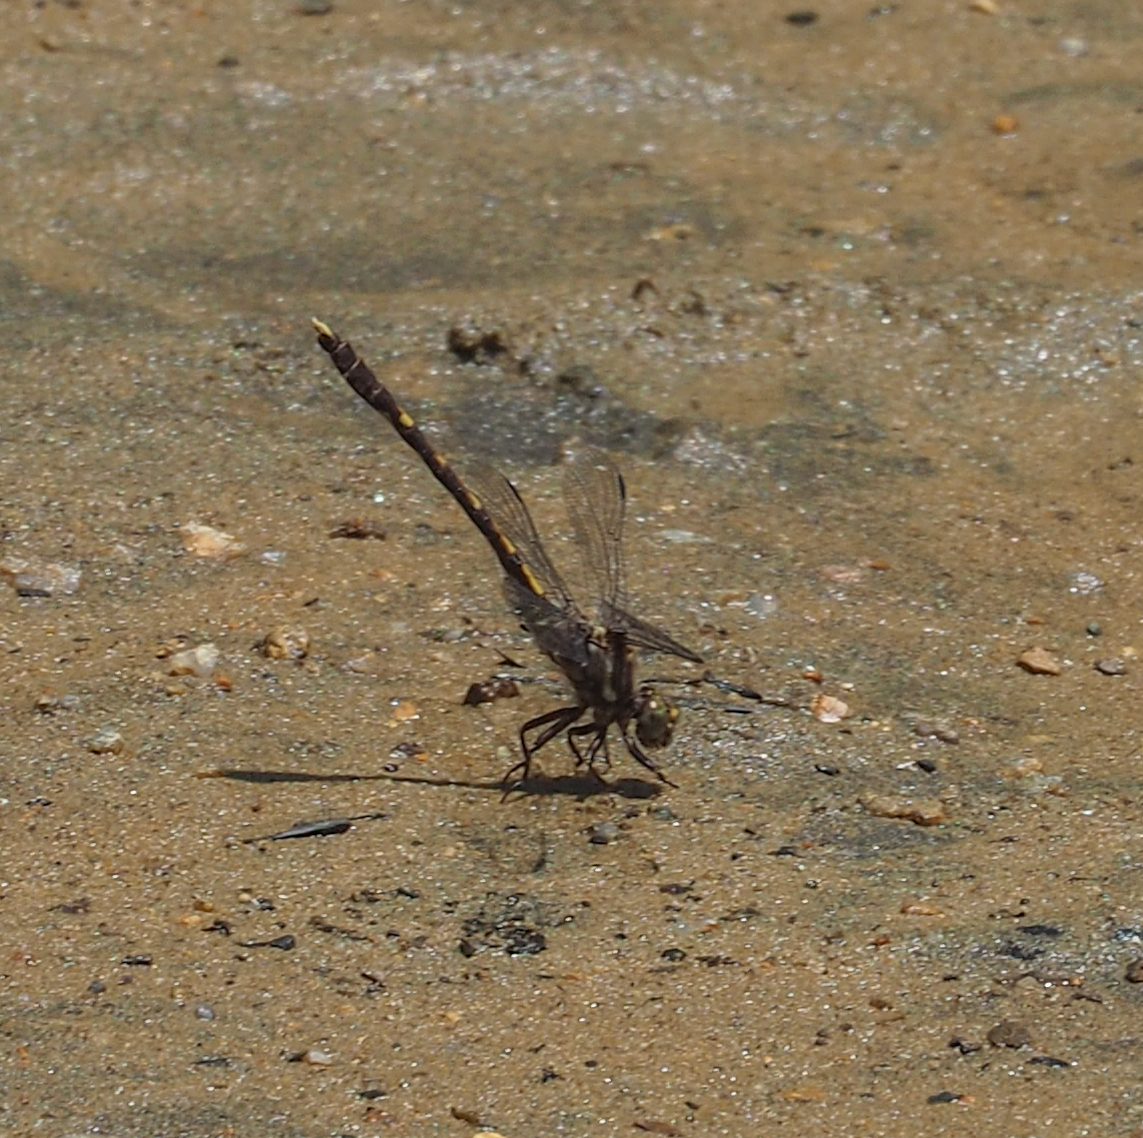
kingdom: Animalia
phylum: Arthropoda
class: Insecta
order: Odonata
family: Gomphidae
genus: Progomphus
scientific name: Progomphus obscurus
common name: Common sanddragon
